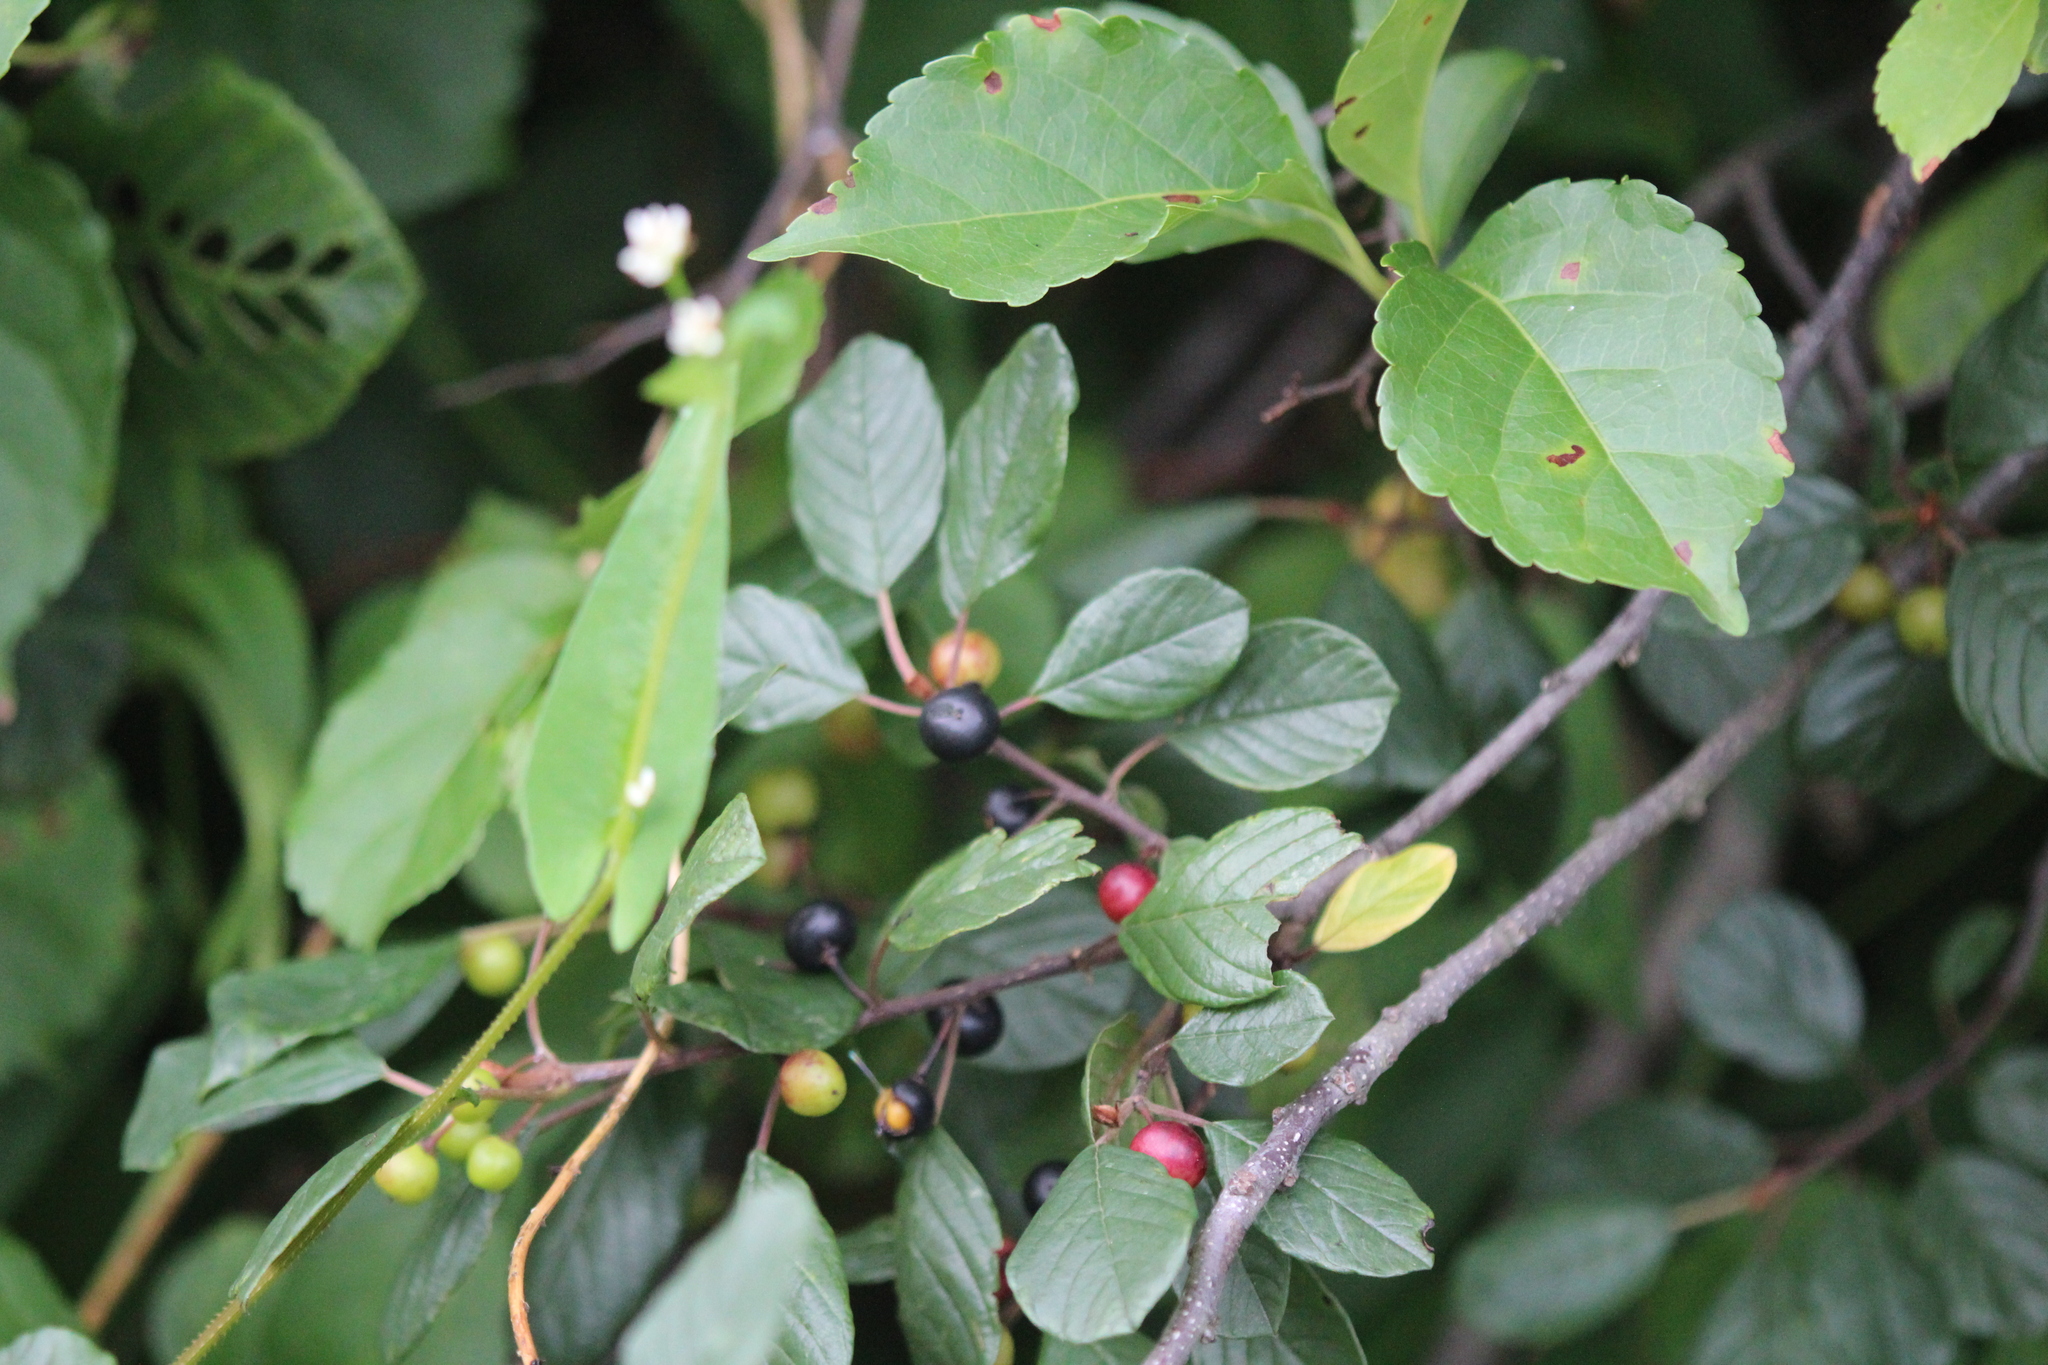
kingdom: Plantae
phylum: Tracheophyta
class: Magnoliopsida
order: Rosales
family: Rhamnaceae
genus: Frangula
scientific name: Frangula alnus
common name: Alder buckthorn
